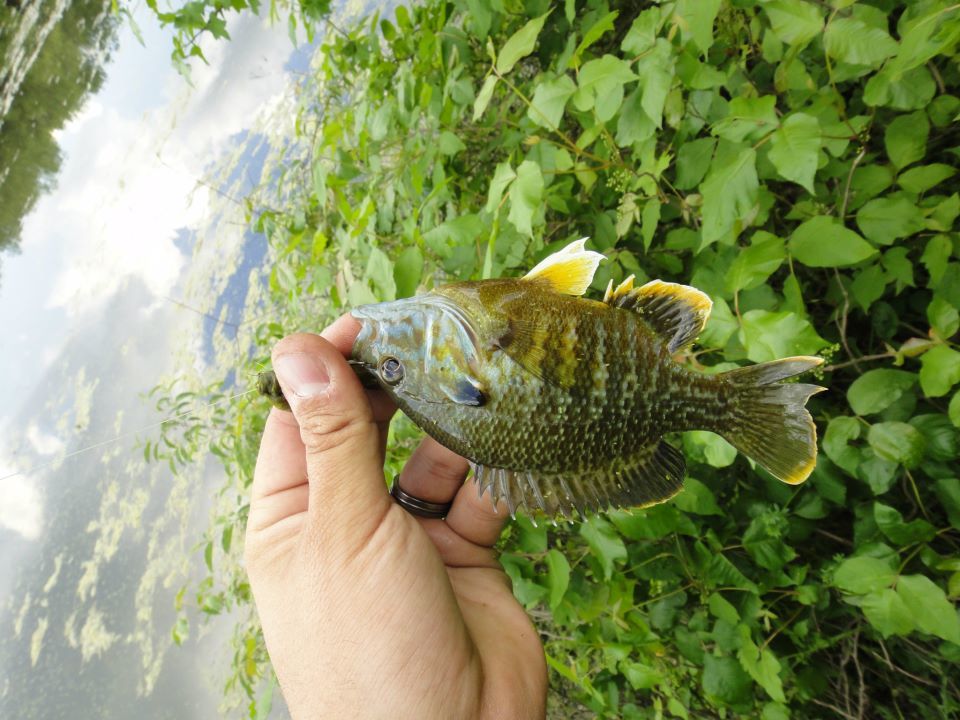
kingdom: Animalia
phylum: Chordata
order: Perciformes
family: Centrarchidae
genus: Lepomis
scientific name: Lepomis
